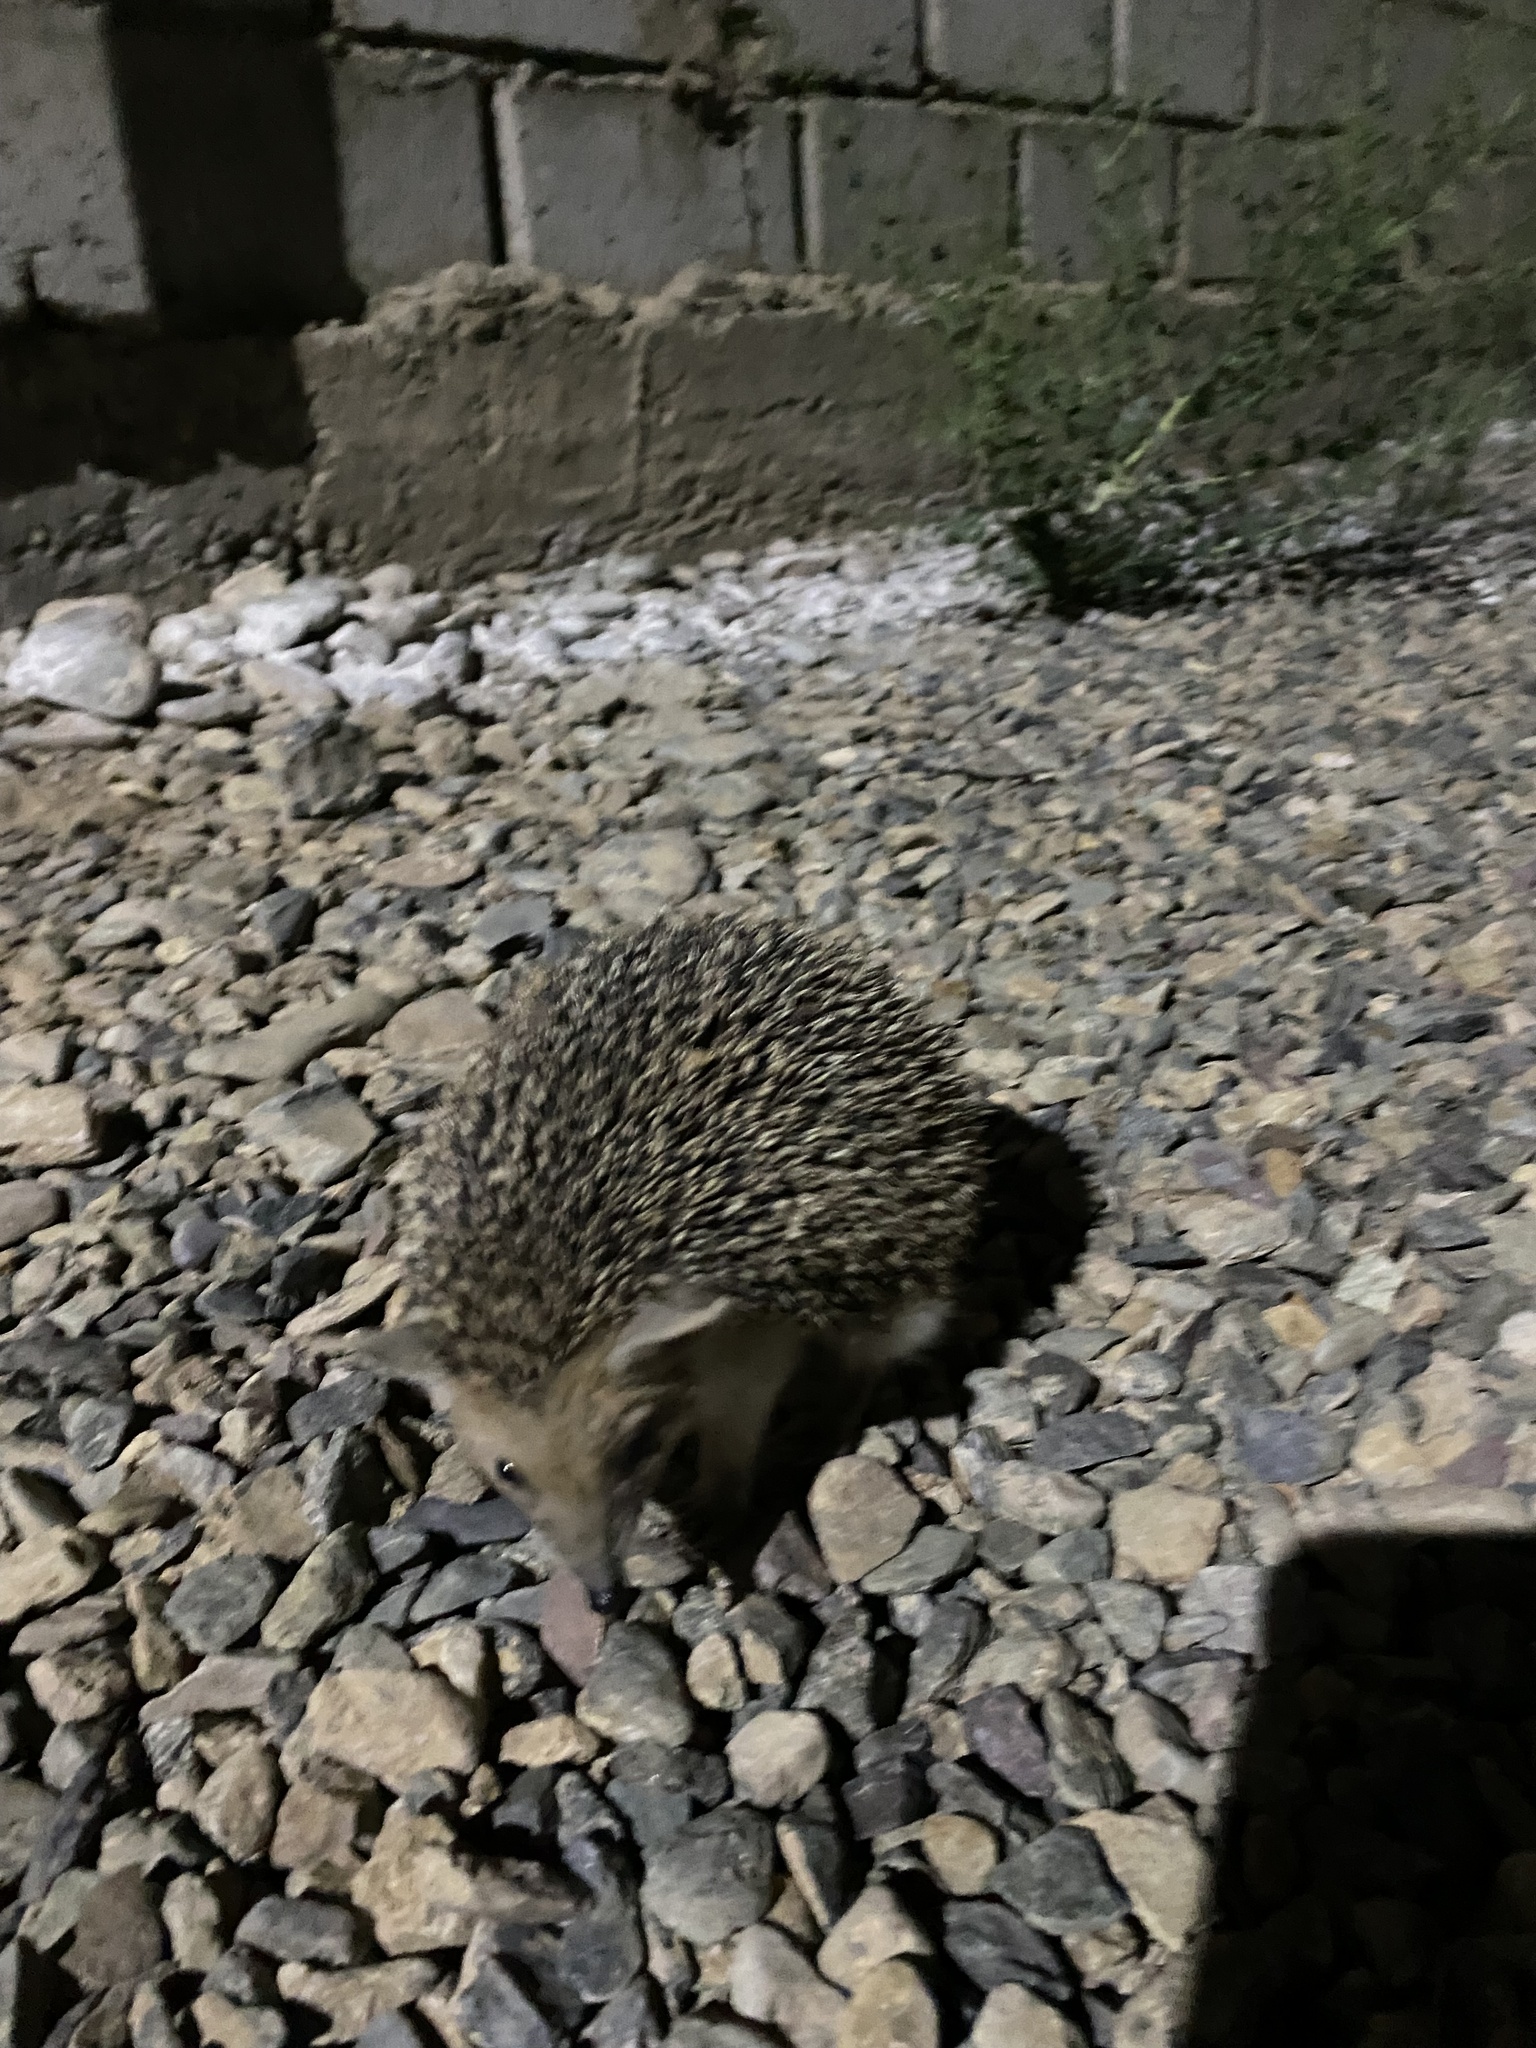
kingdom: Animalia
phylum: Chordata
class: Mammalia
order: Erinaceomorpha
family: Erinaceidae
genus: Hemiechinus
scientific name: Hemiechinus auritus
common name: Long-eared hedgehog
